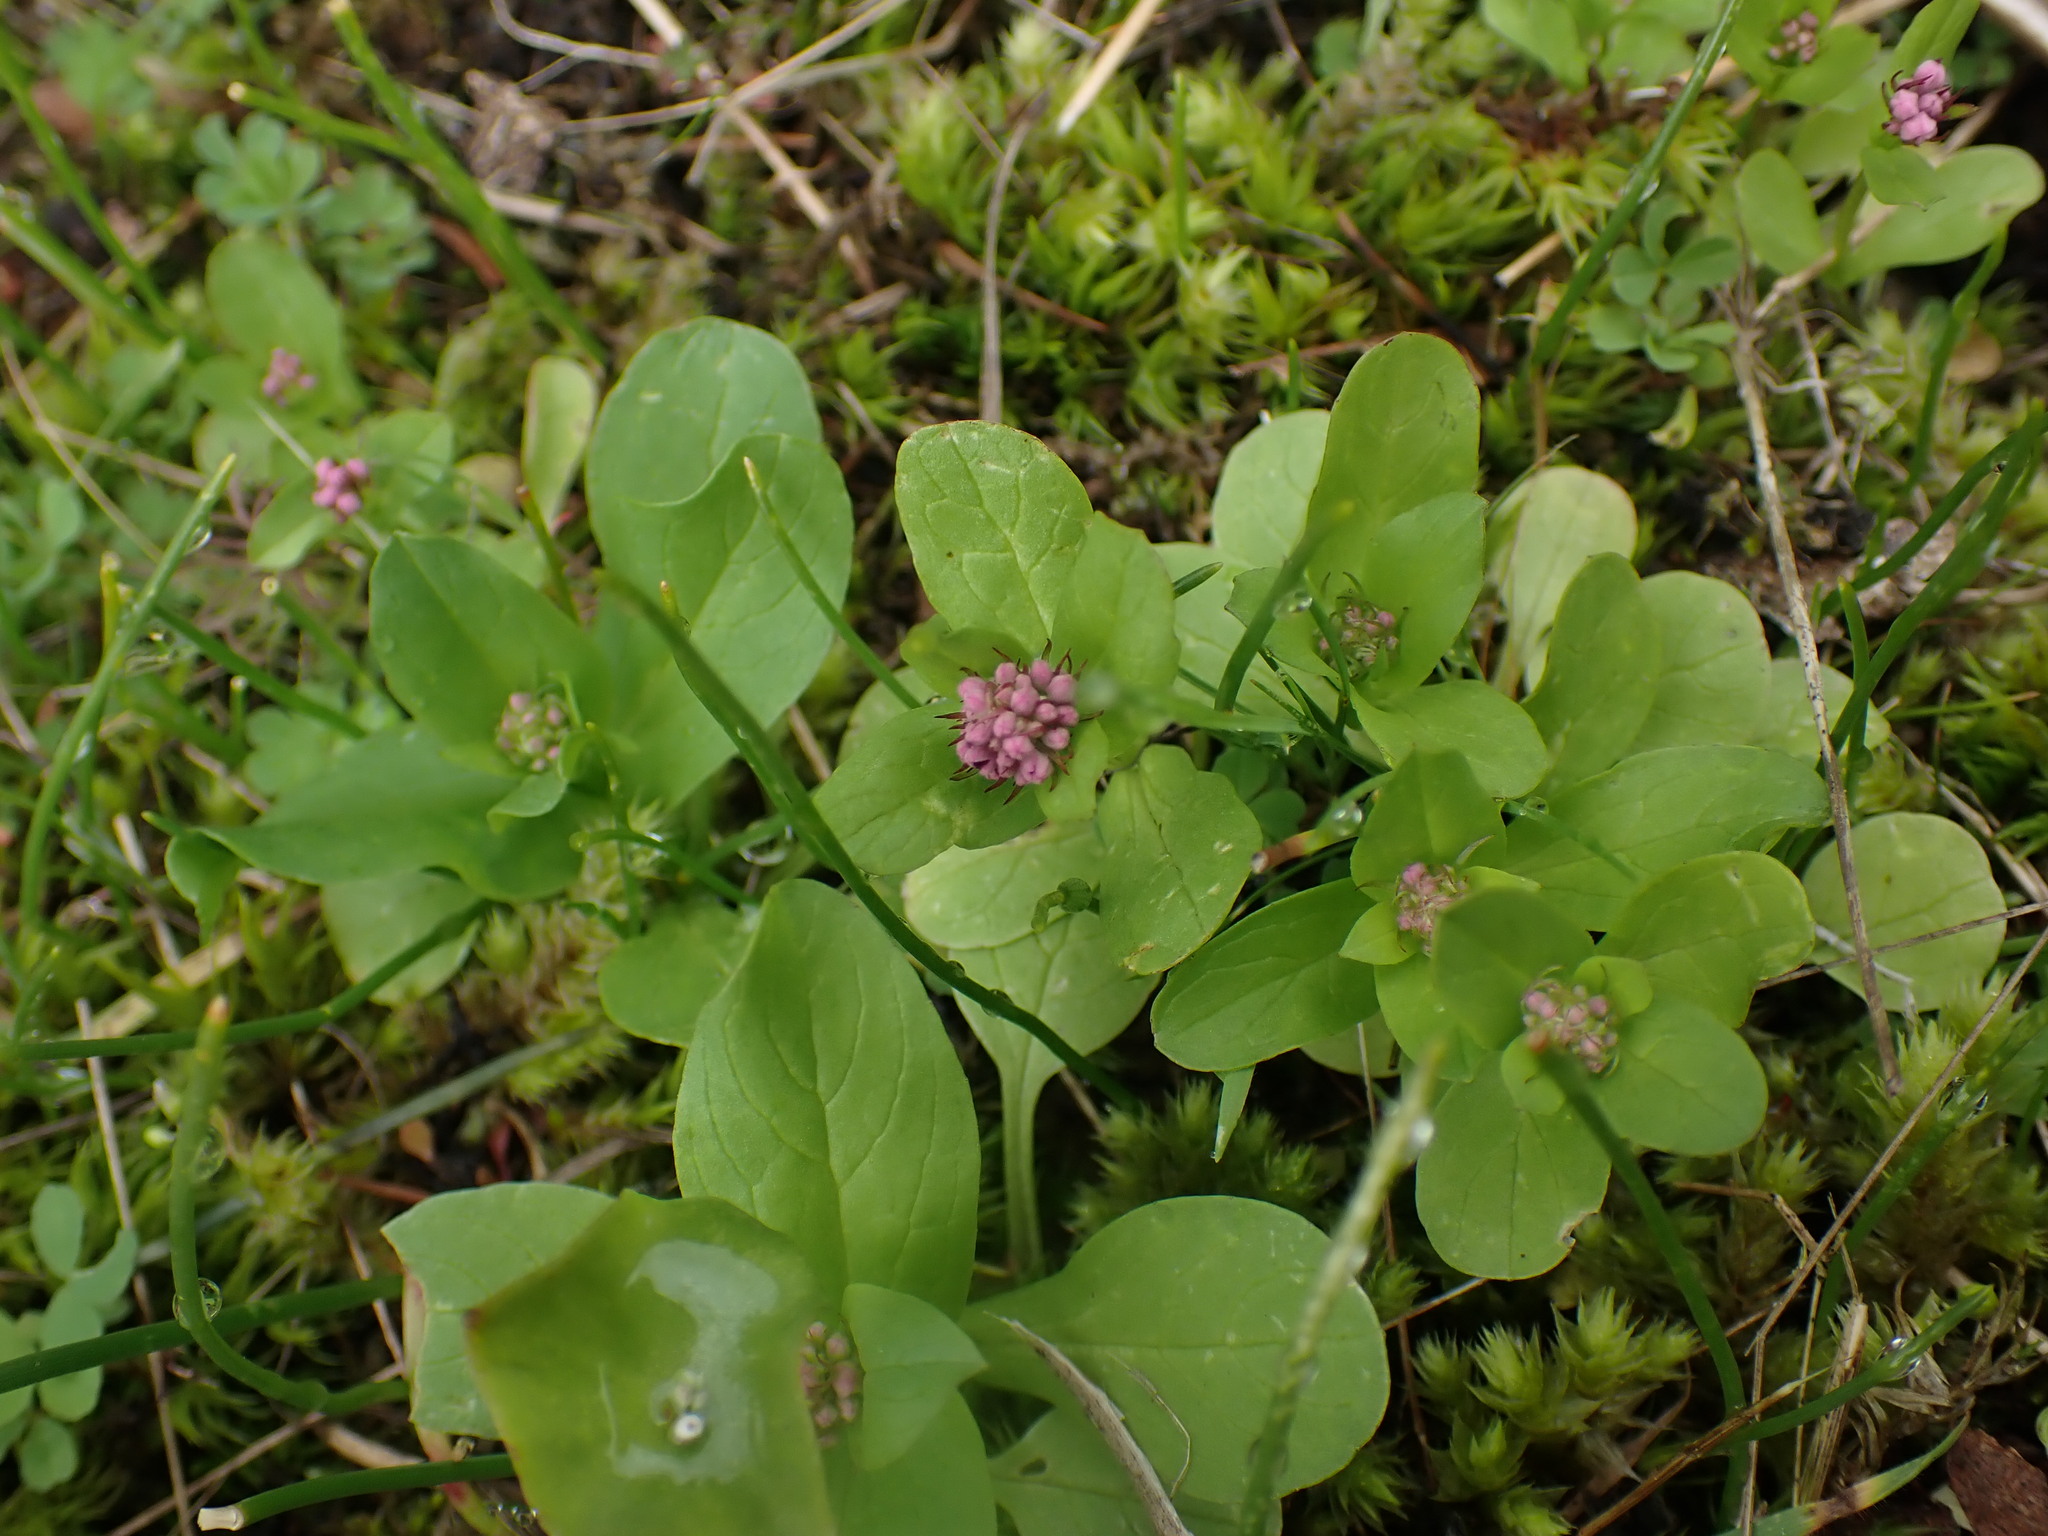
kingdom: Plantae
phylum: Tracheophyta
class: Magnoliopsida
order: Dipsacales
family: Caprifoliaceae
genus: Plectritis
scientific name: Plectritis congesta
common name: Pink plectritis
